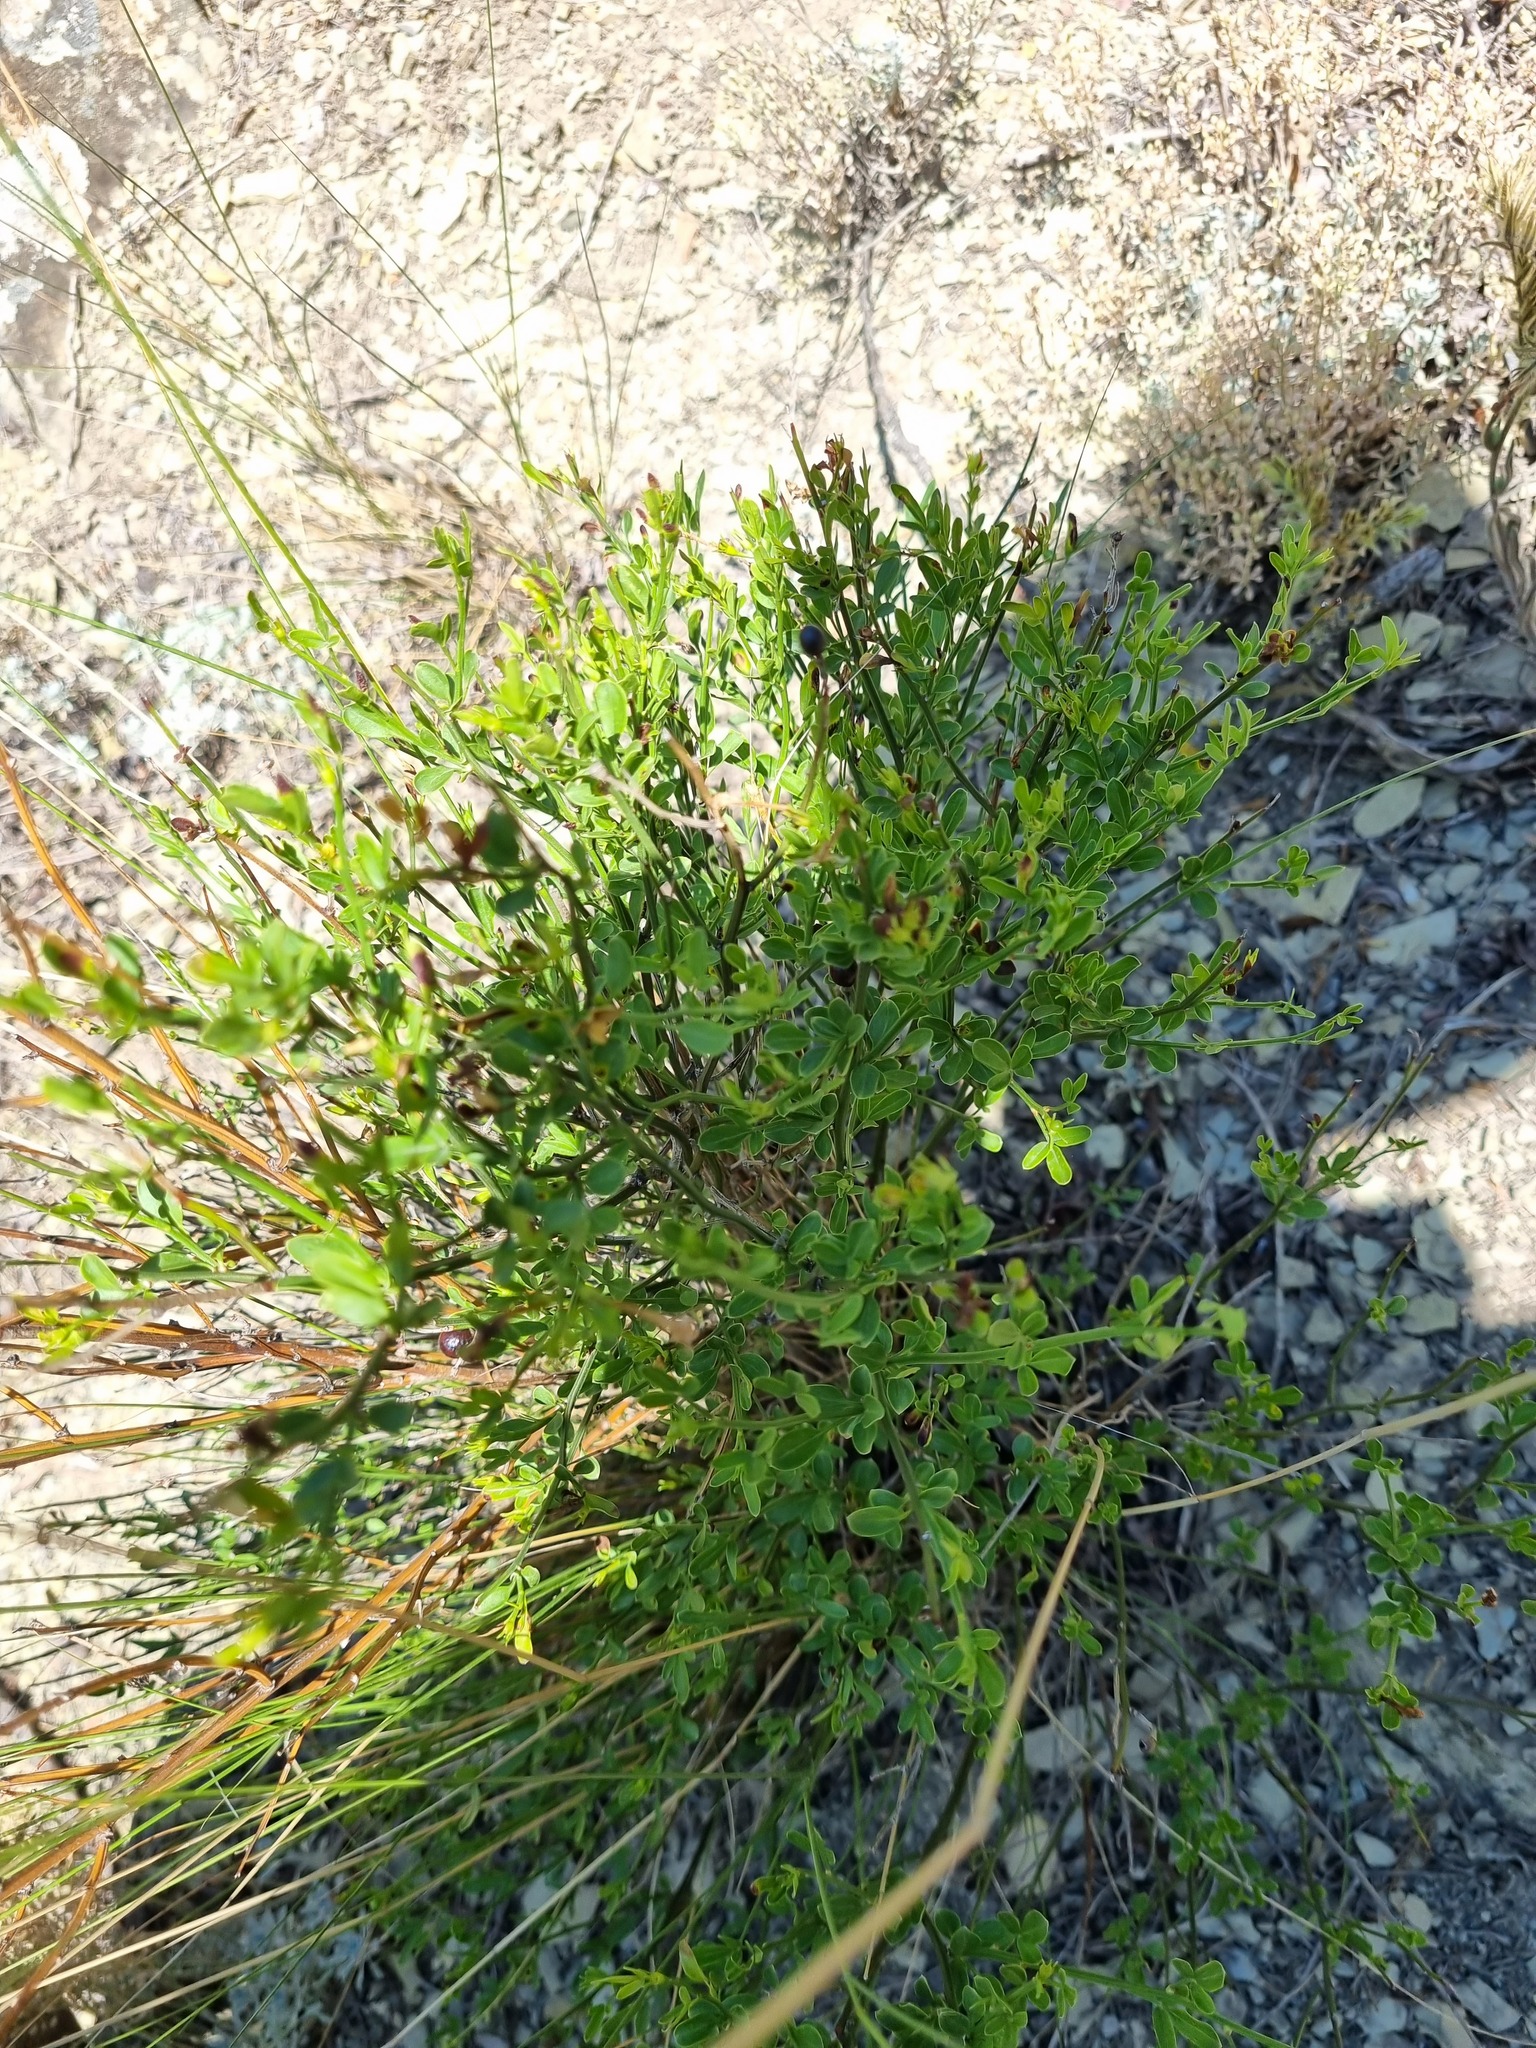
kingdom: Plantae
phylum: Tracheophyta
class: Magnoliopsida
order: Lamiales
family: Oleaceae
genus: Chrysojasminum
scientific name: Chrysojasminum fruticans
